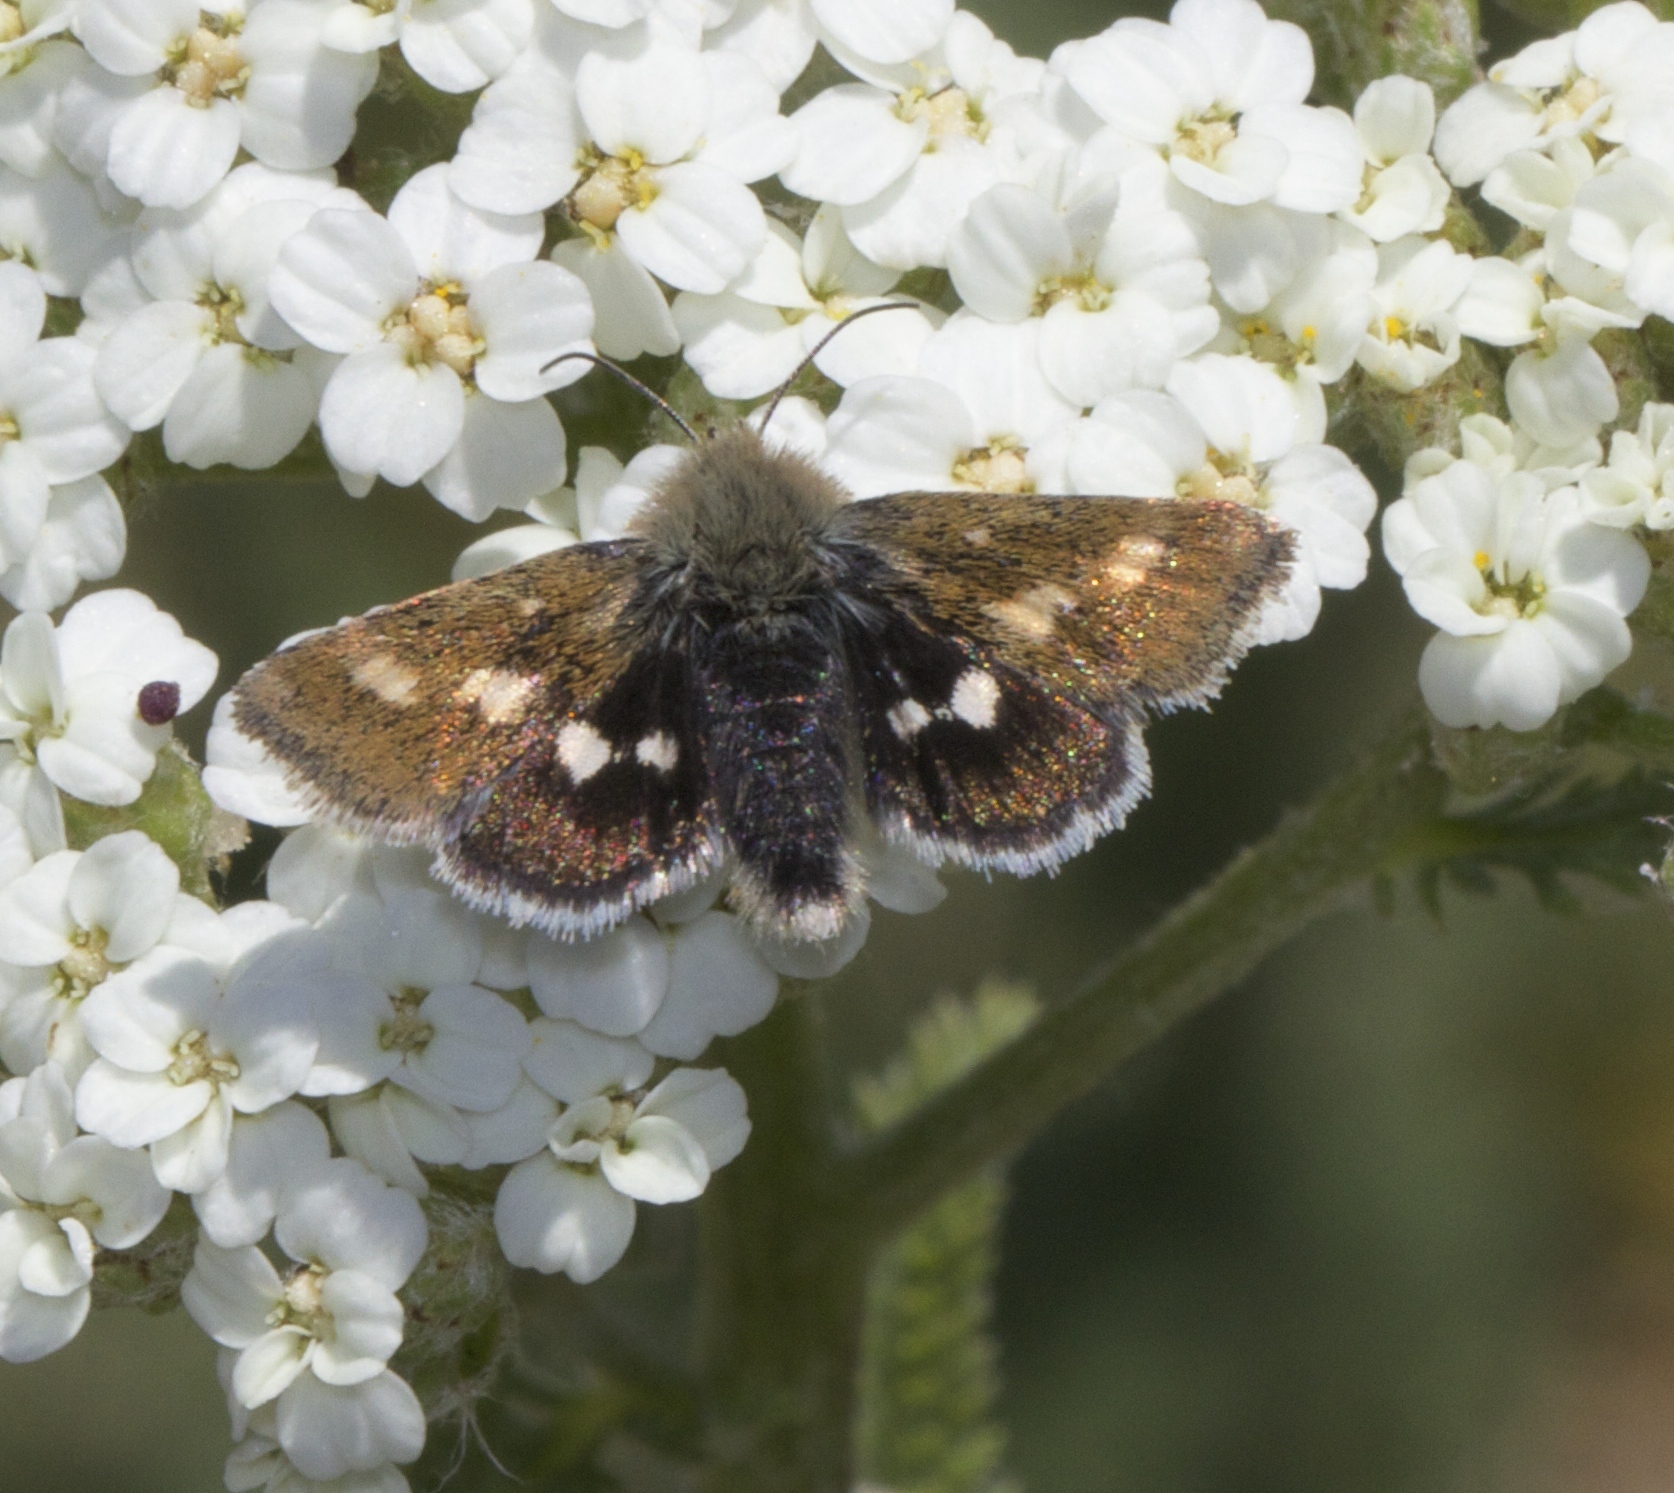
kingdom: Animalia
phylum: Arthropoda
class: Insecta
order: Lepidoptera
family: Noctuidae
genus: Heliothodes
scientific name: Heliothodes diminutiva
